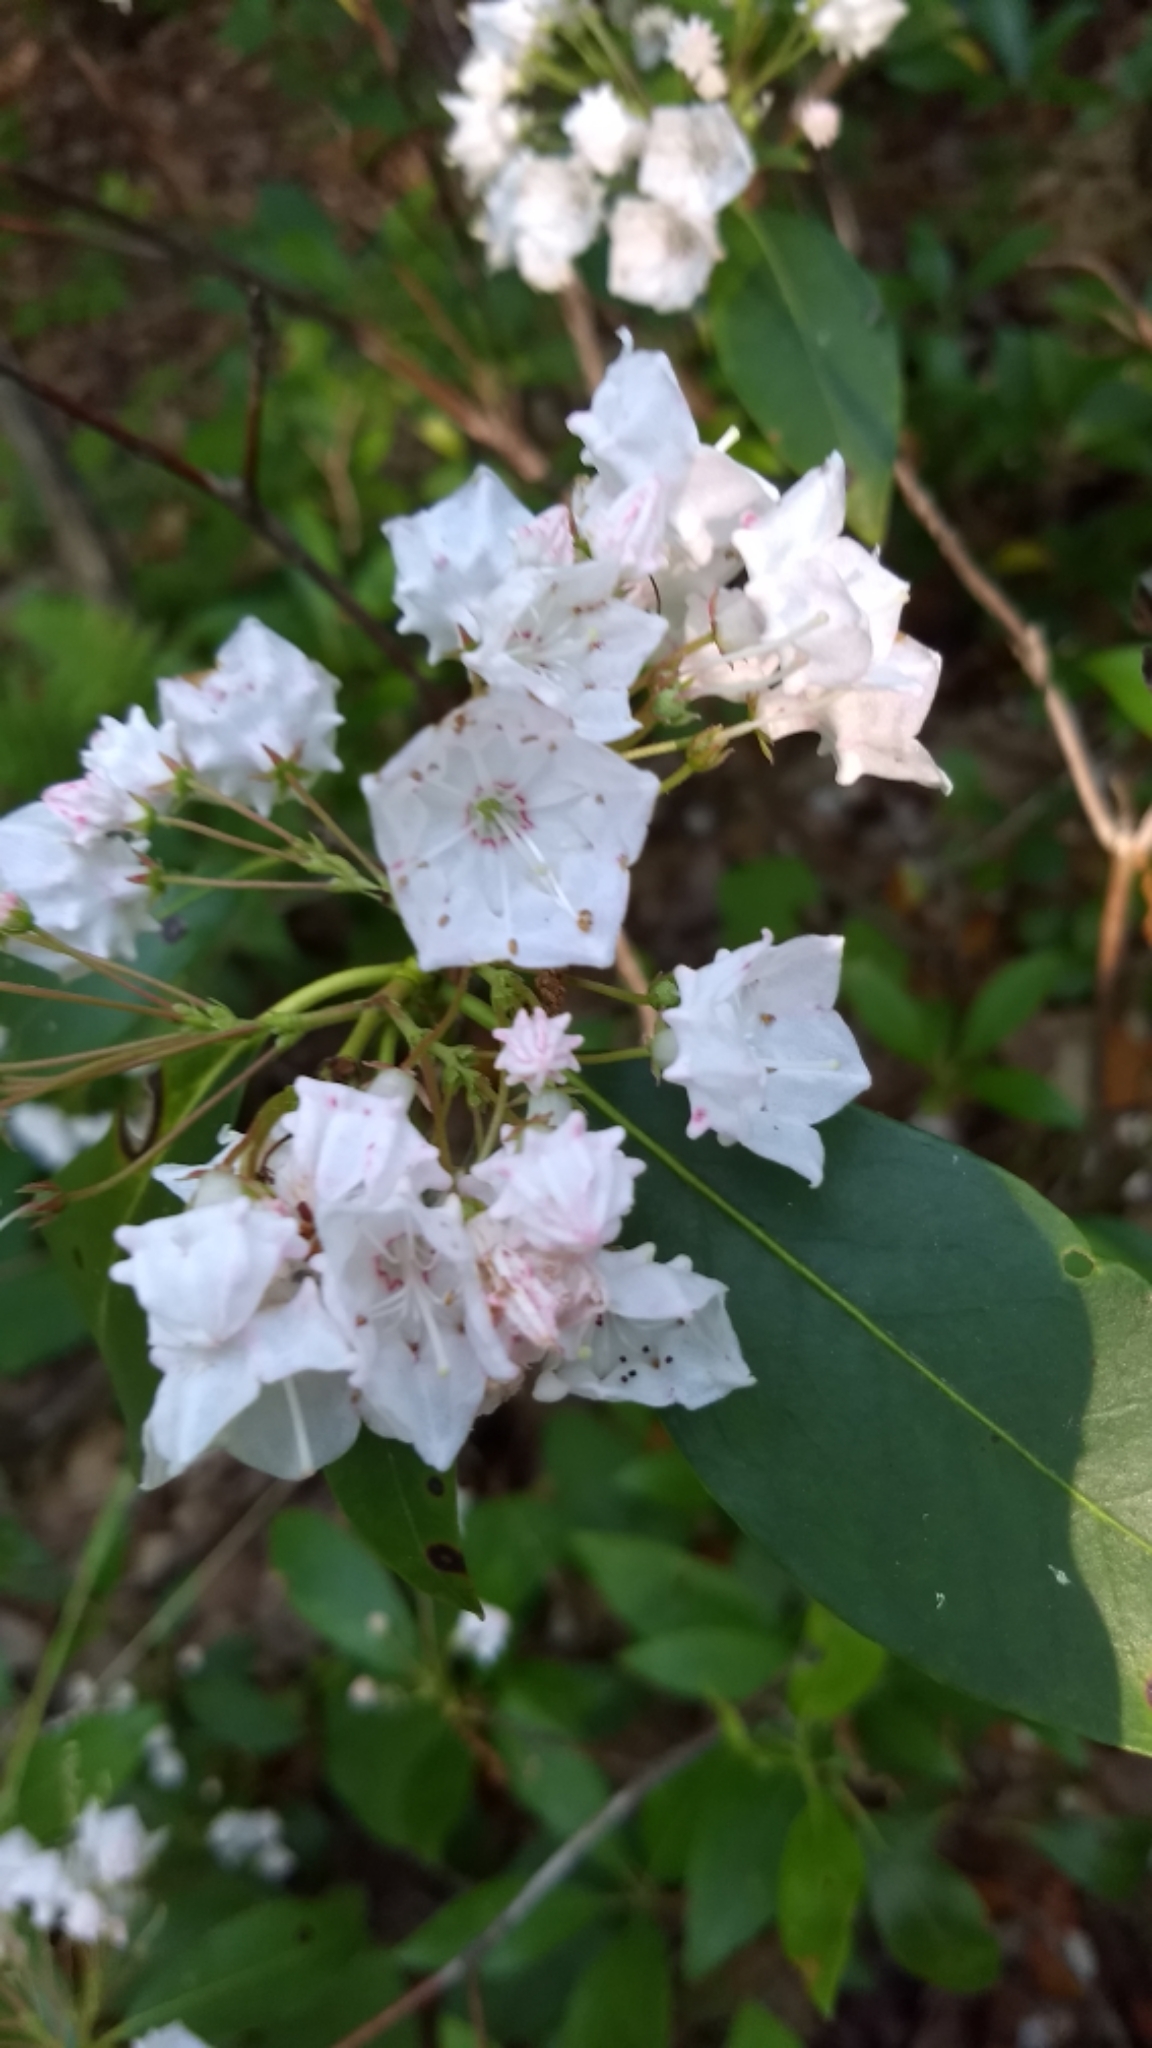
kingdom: Plantae
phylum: Tracheophyta
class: Magnoliopsida
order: Ericales
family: Ericaceae
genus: Kalmia
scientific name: Kalmia latifolia
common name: Mountain-laurel
